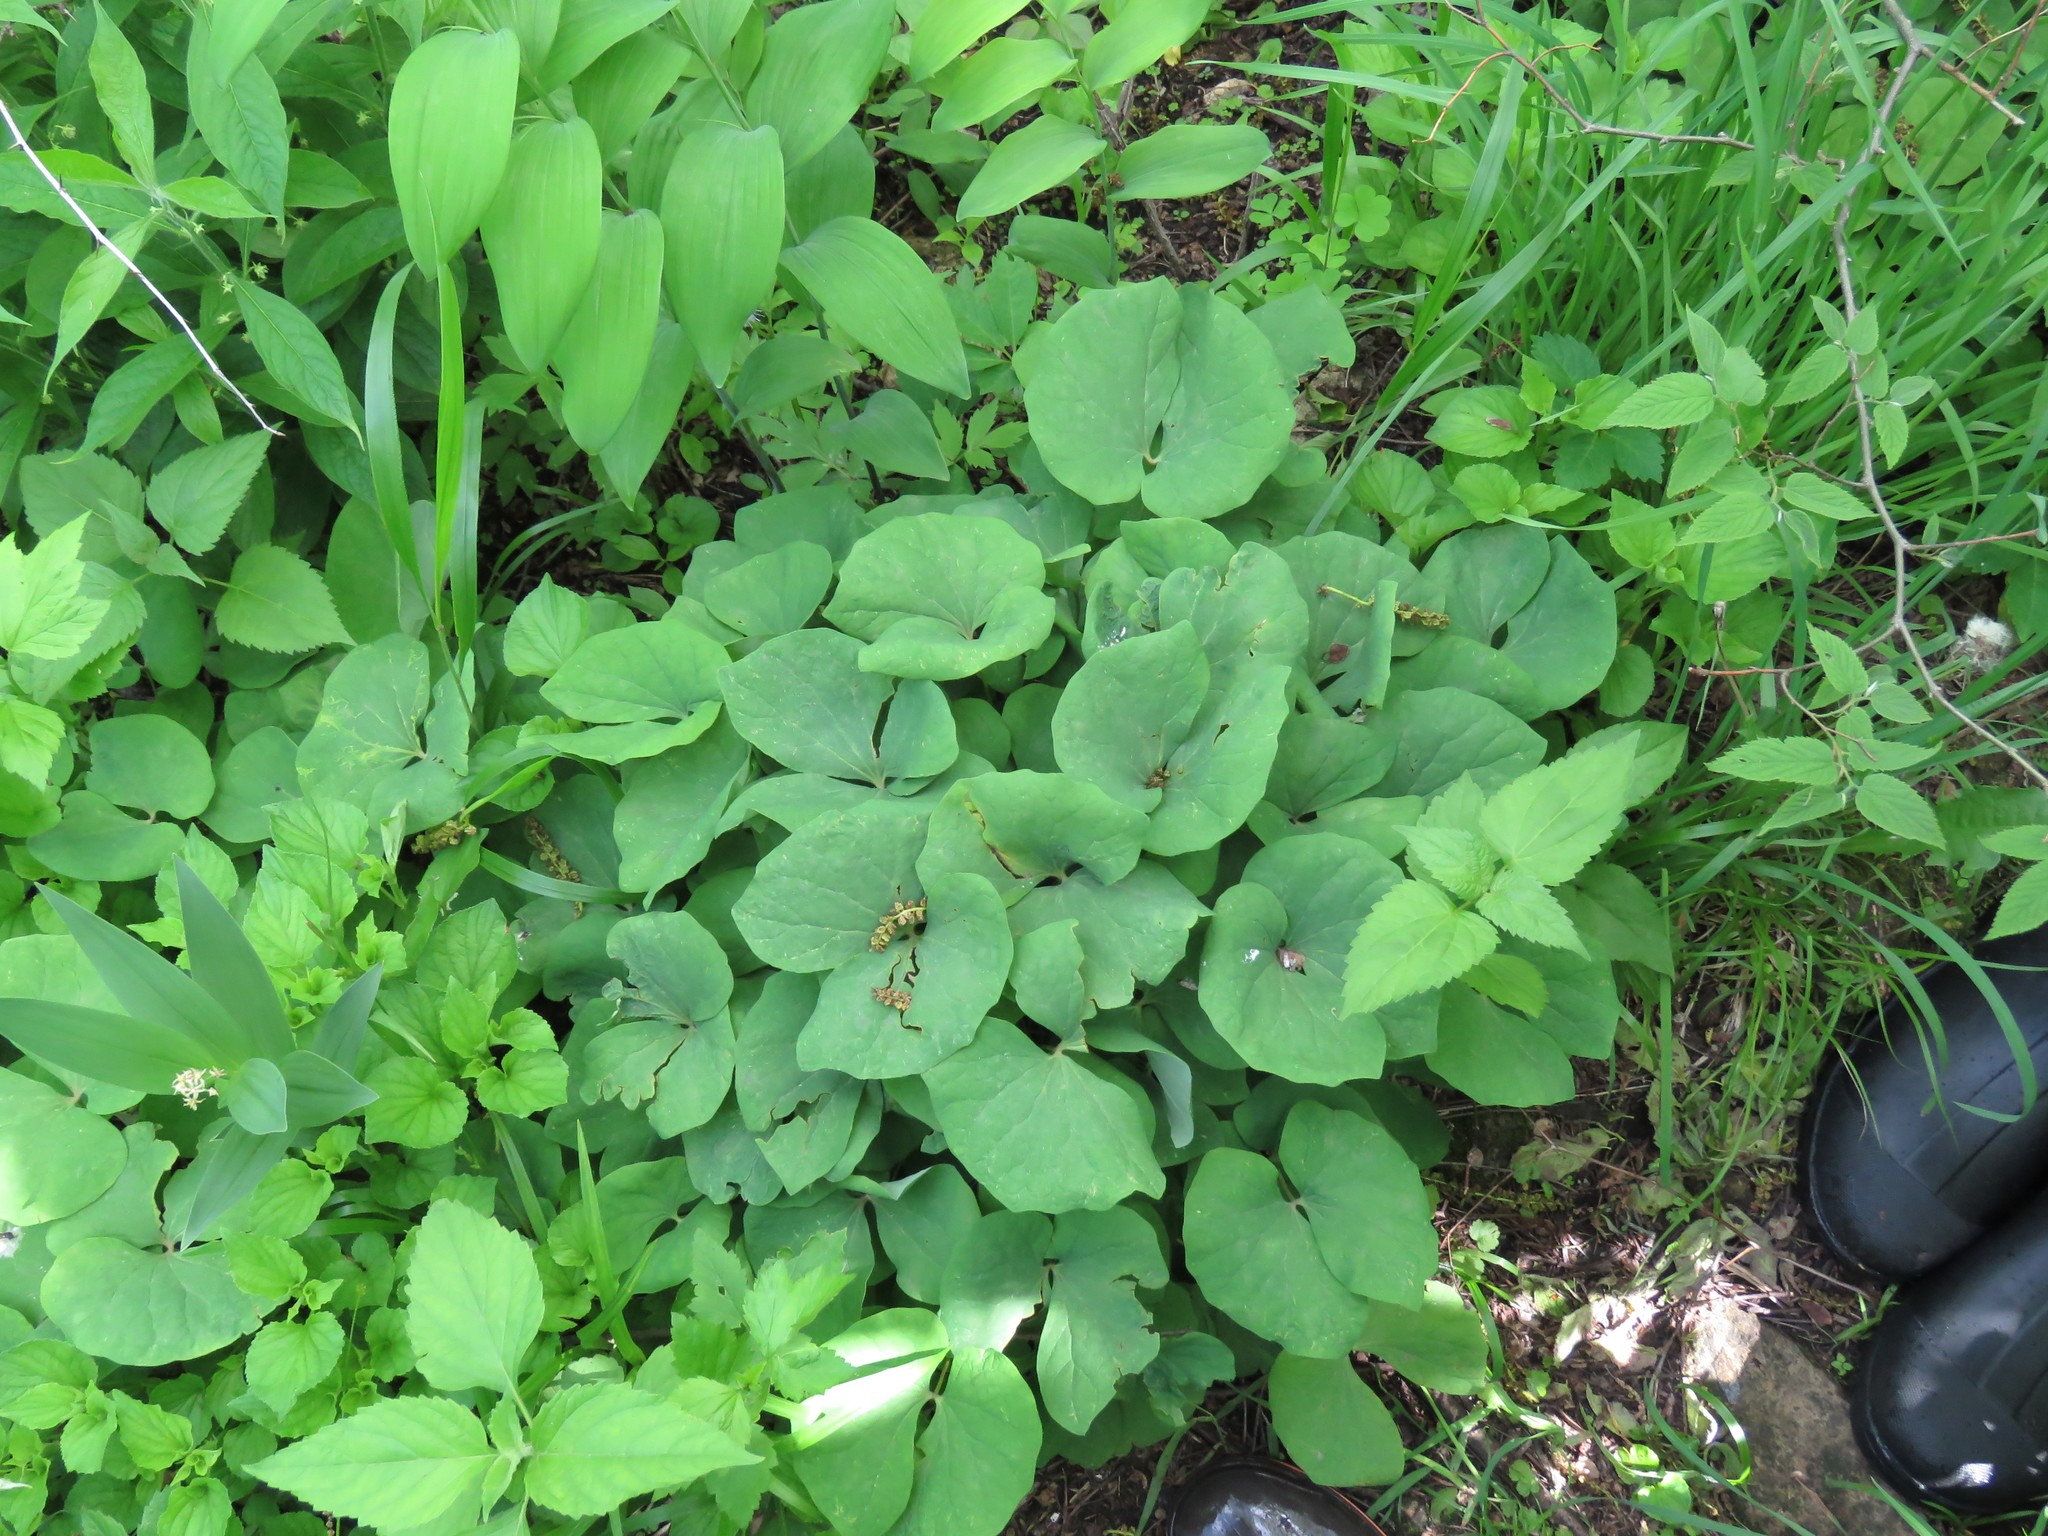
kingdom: Plantae
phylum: Tracheophyta
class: Magnoliopsida
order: Ranunculales
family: Berberidaceae
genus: Jeffersonia
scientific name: Jeffersonia diphylla
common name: Rheumatism-root
